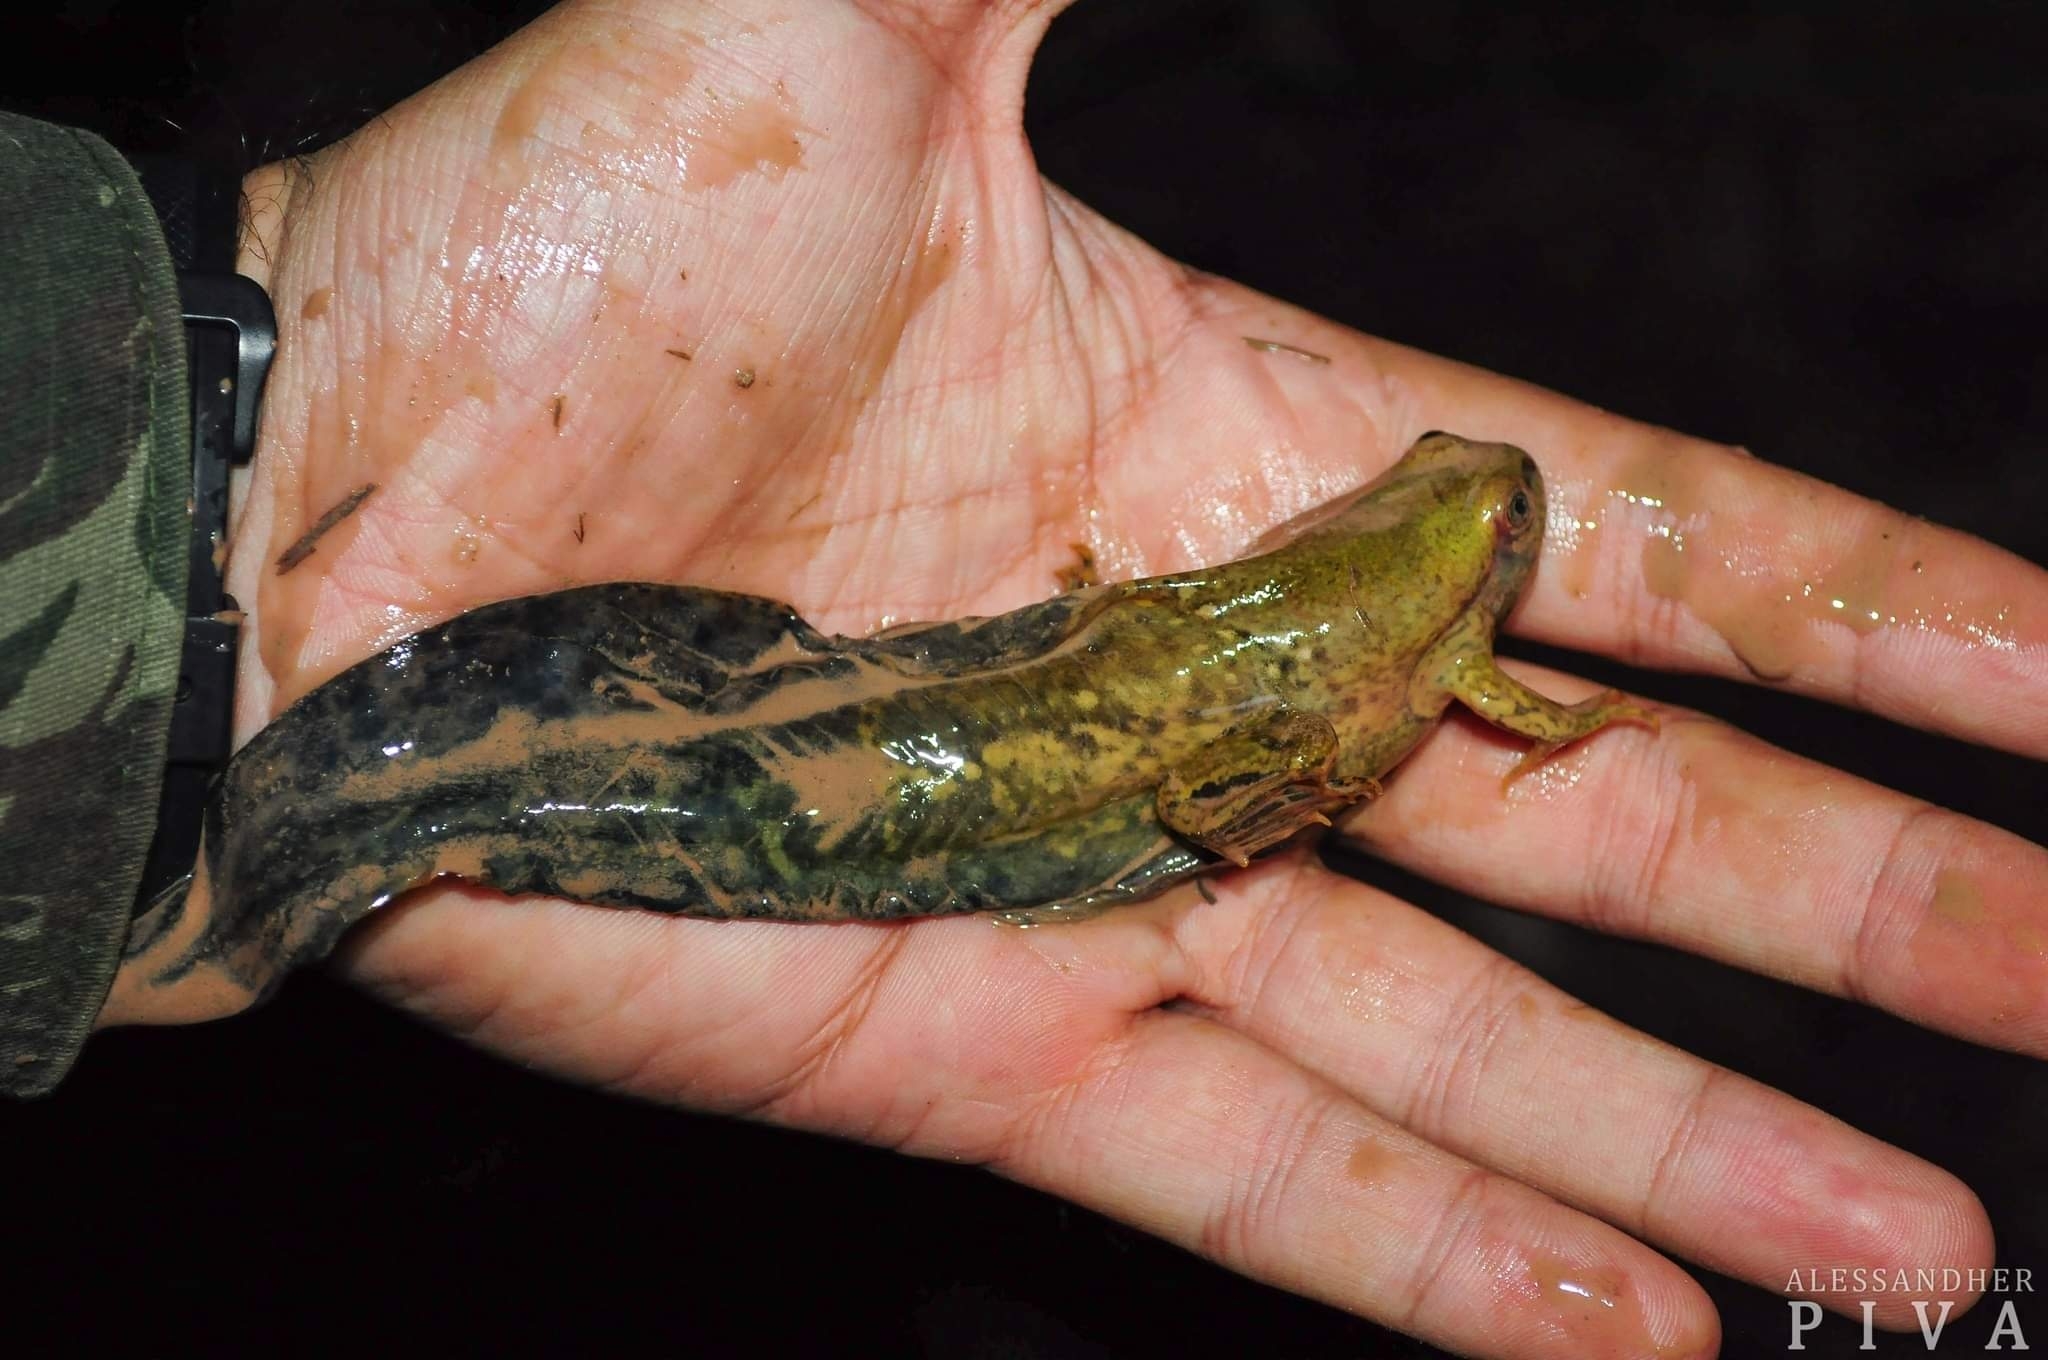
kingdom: Animalia
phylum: Chordata
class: Amphibia
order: Anura
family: Hylidae
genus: Pseudis
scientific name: Pseudis platensis
